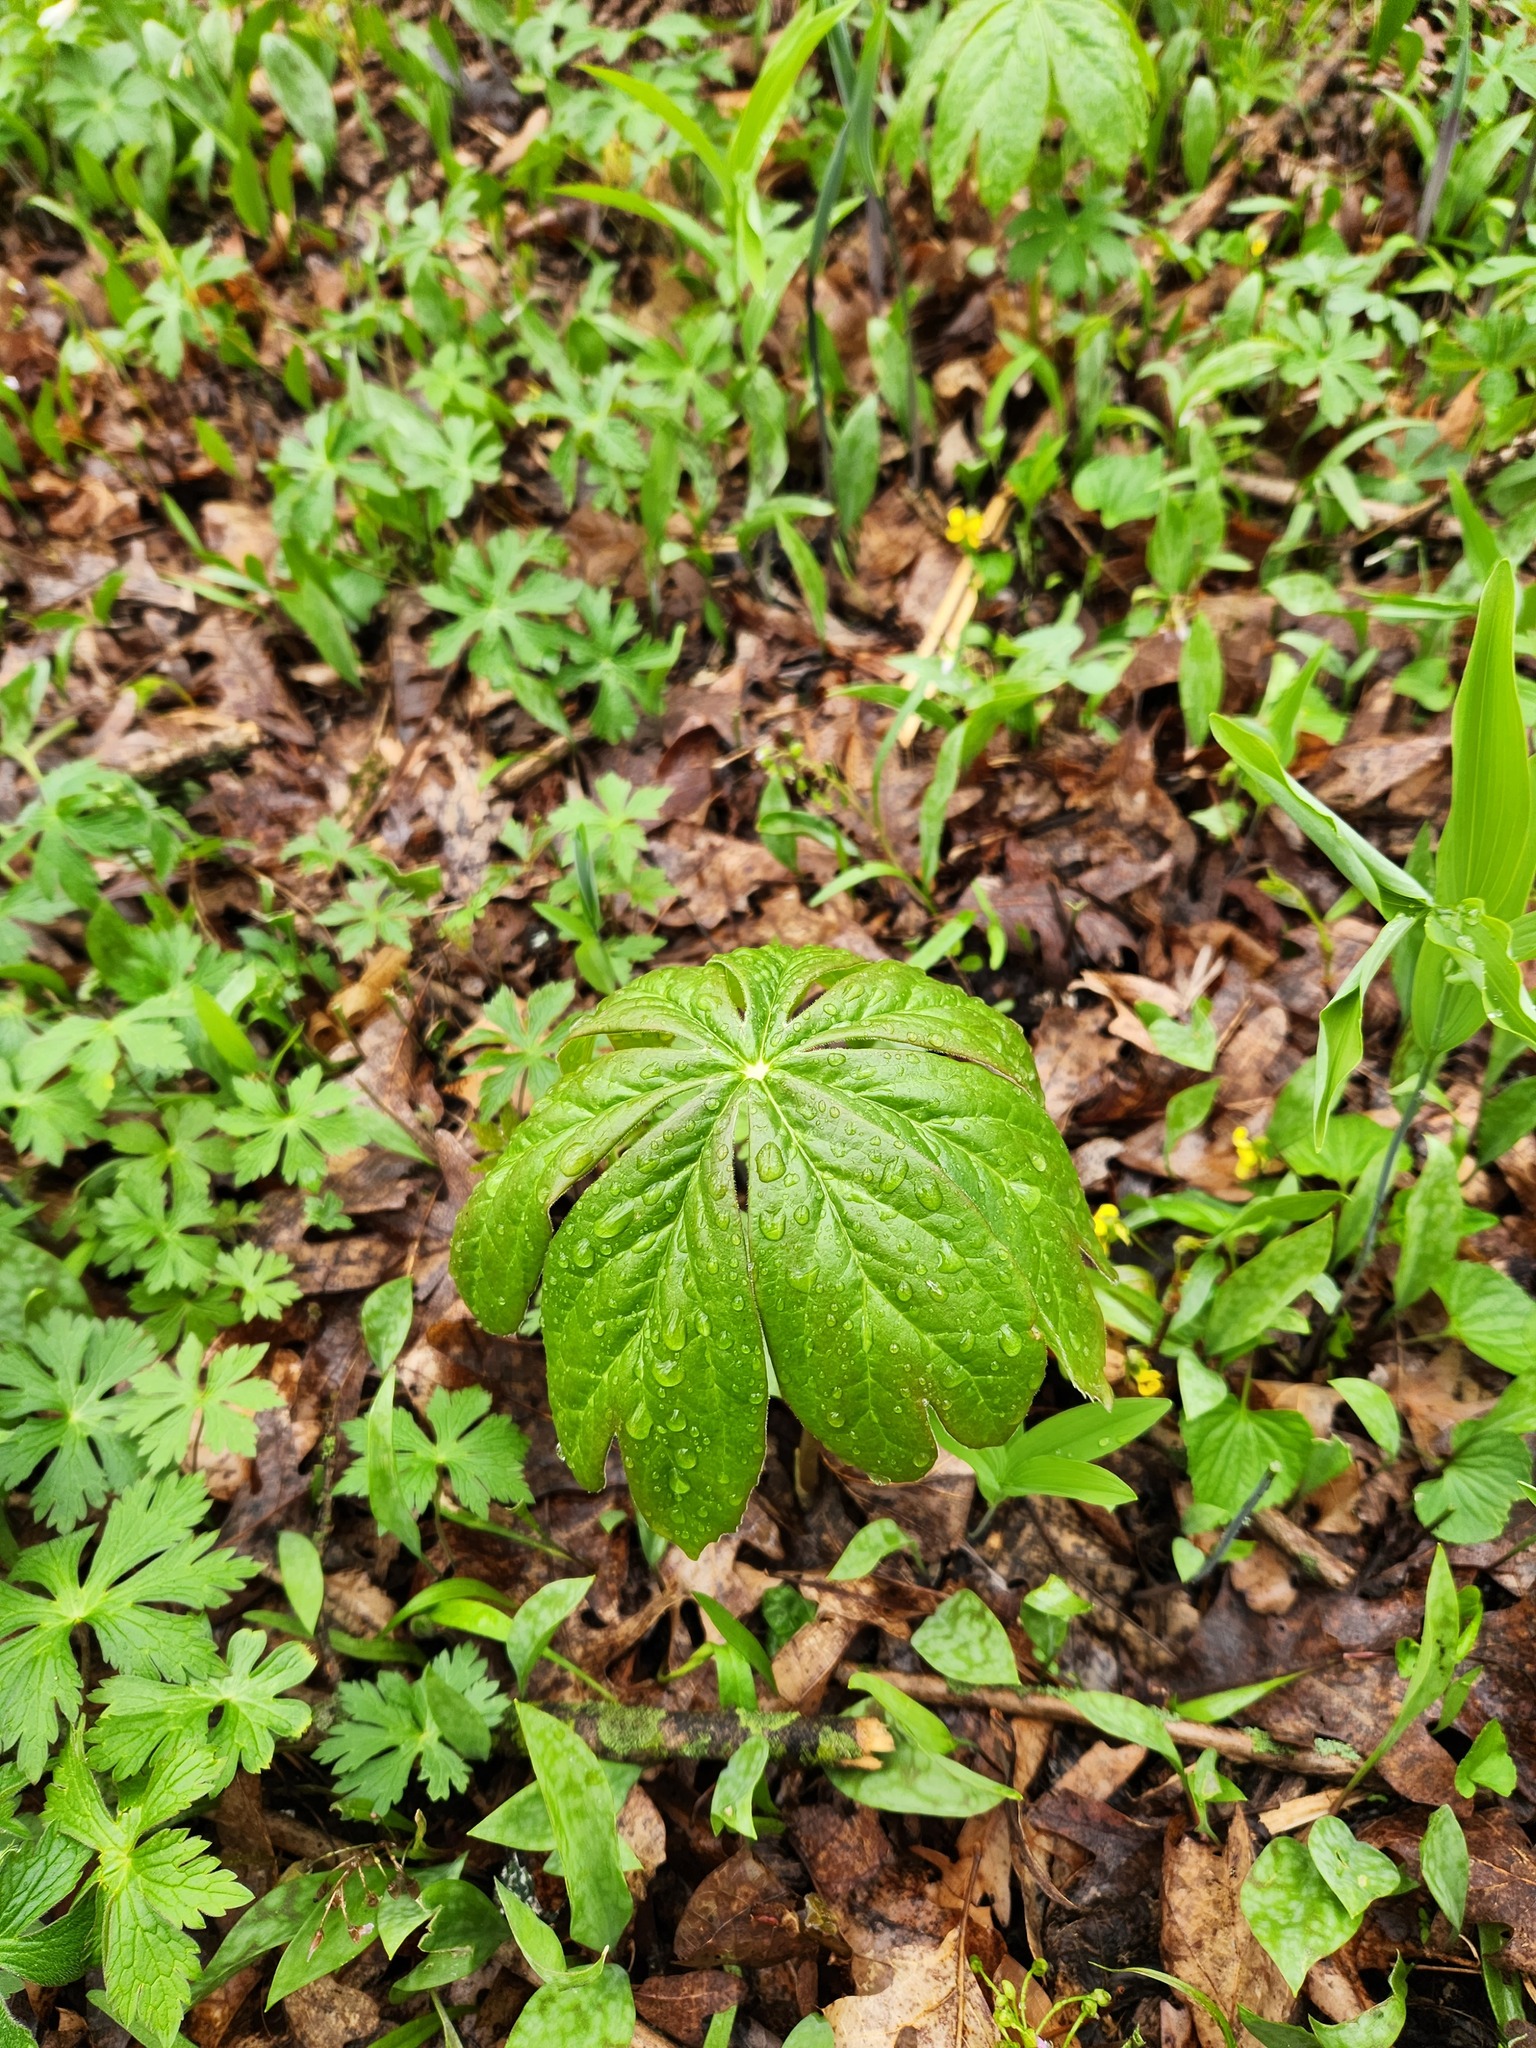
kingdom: Plantae
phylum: Tracheophyta
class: Magnoliopsida
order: Ranunculales
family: Berberidaceae
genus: Podophyllum
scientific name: Podophyllum peltatum
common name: Wild mandrake
